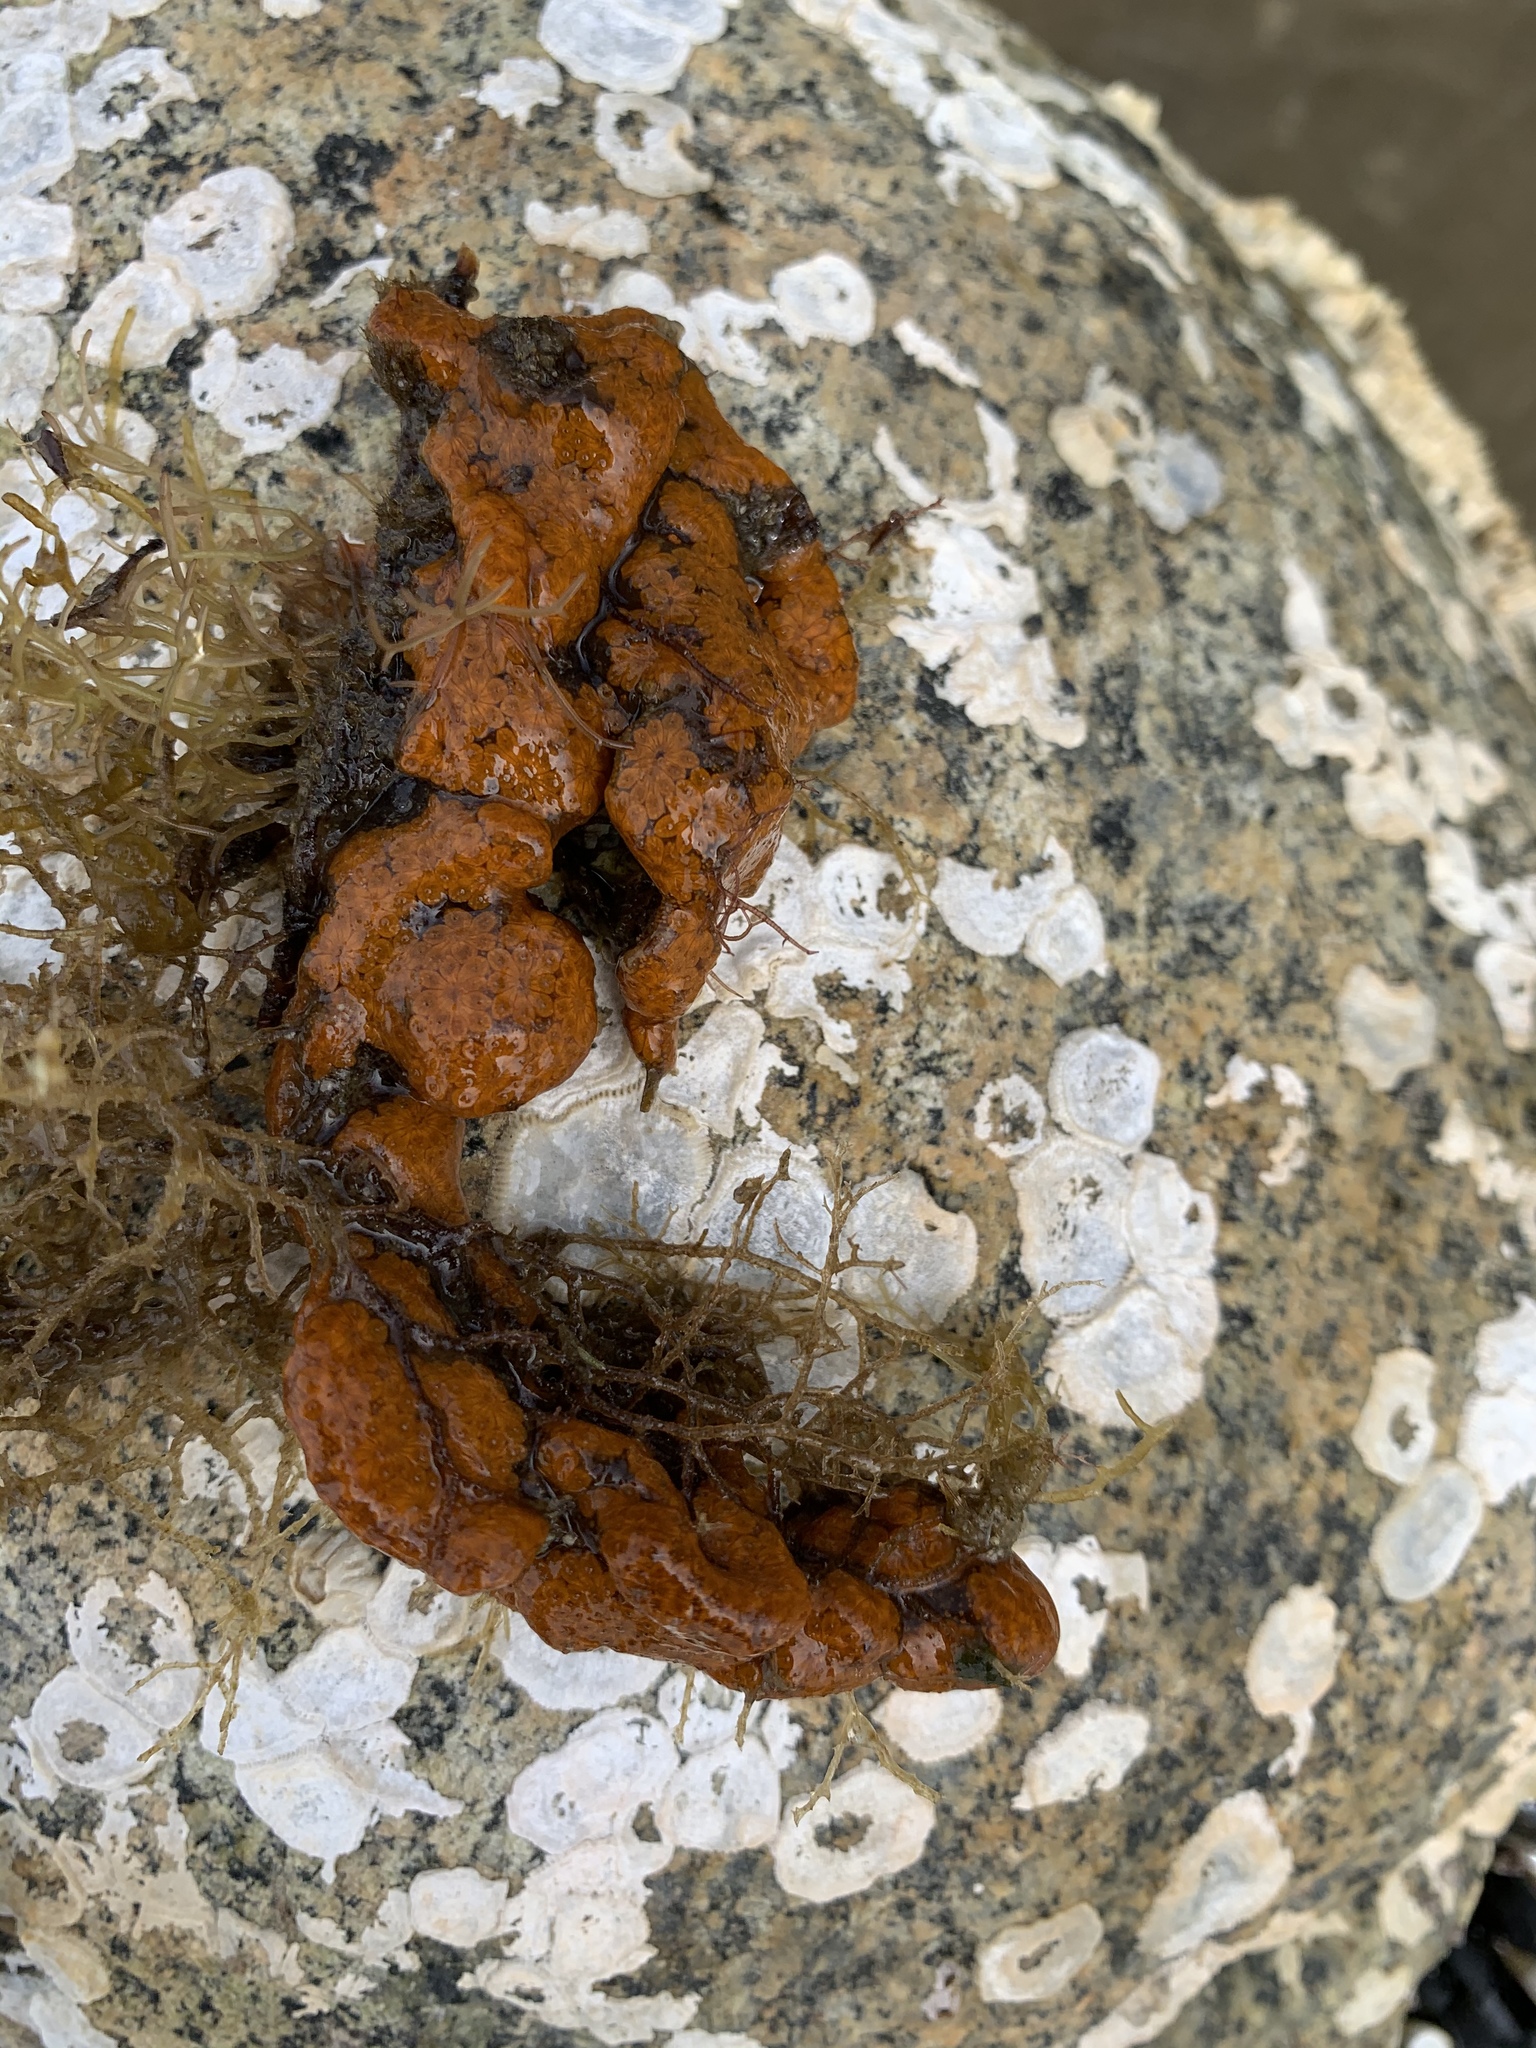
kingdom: Animalia
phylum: Chordata
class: Ascidiacea
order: Stolidobranchia
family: Styelidae
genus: Botryllus
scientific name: Botryllus schlosseri
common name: Golden star tunicate
